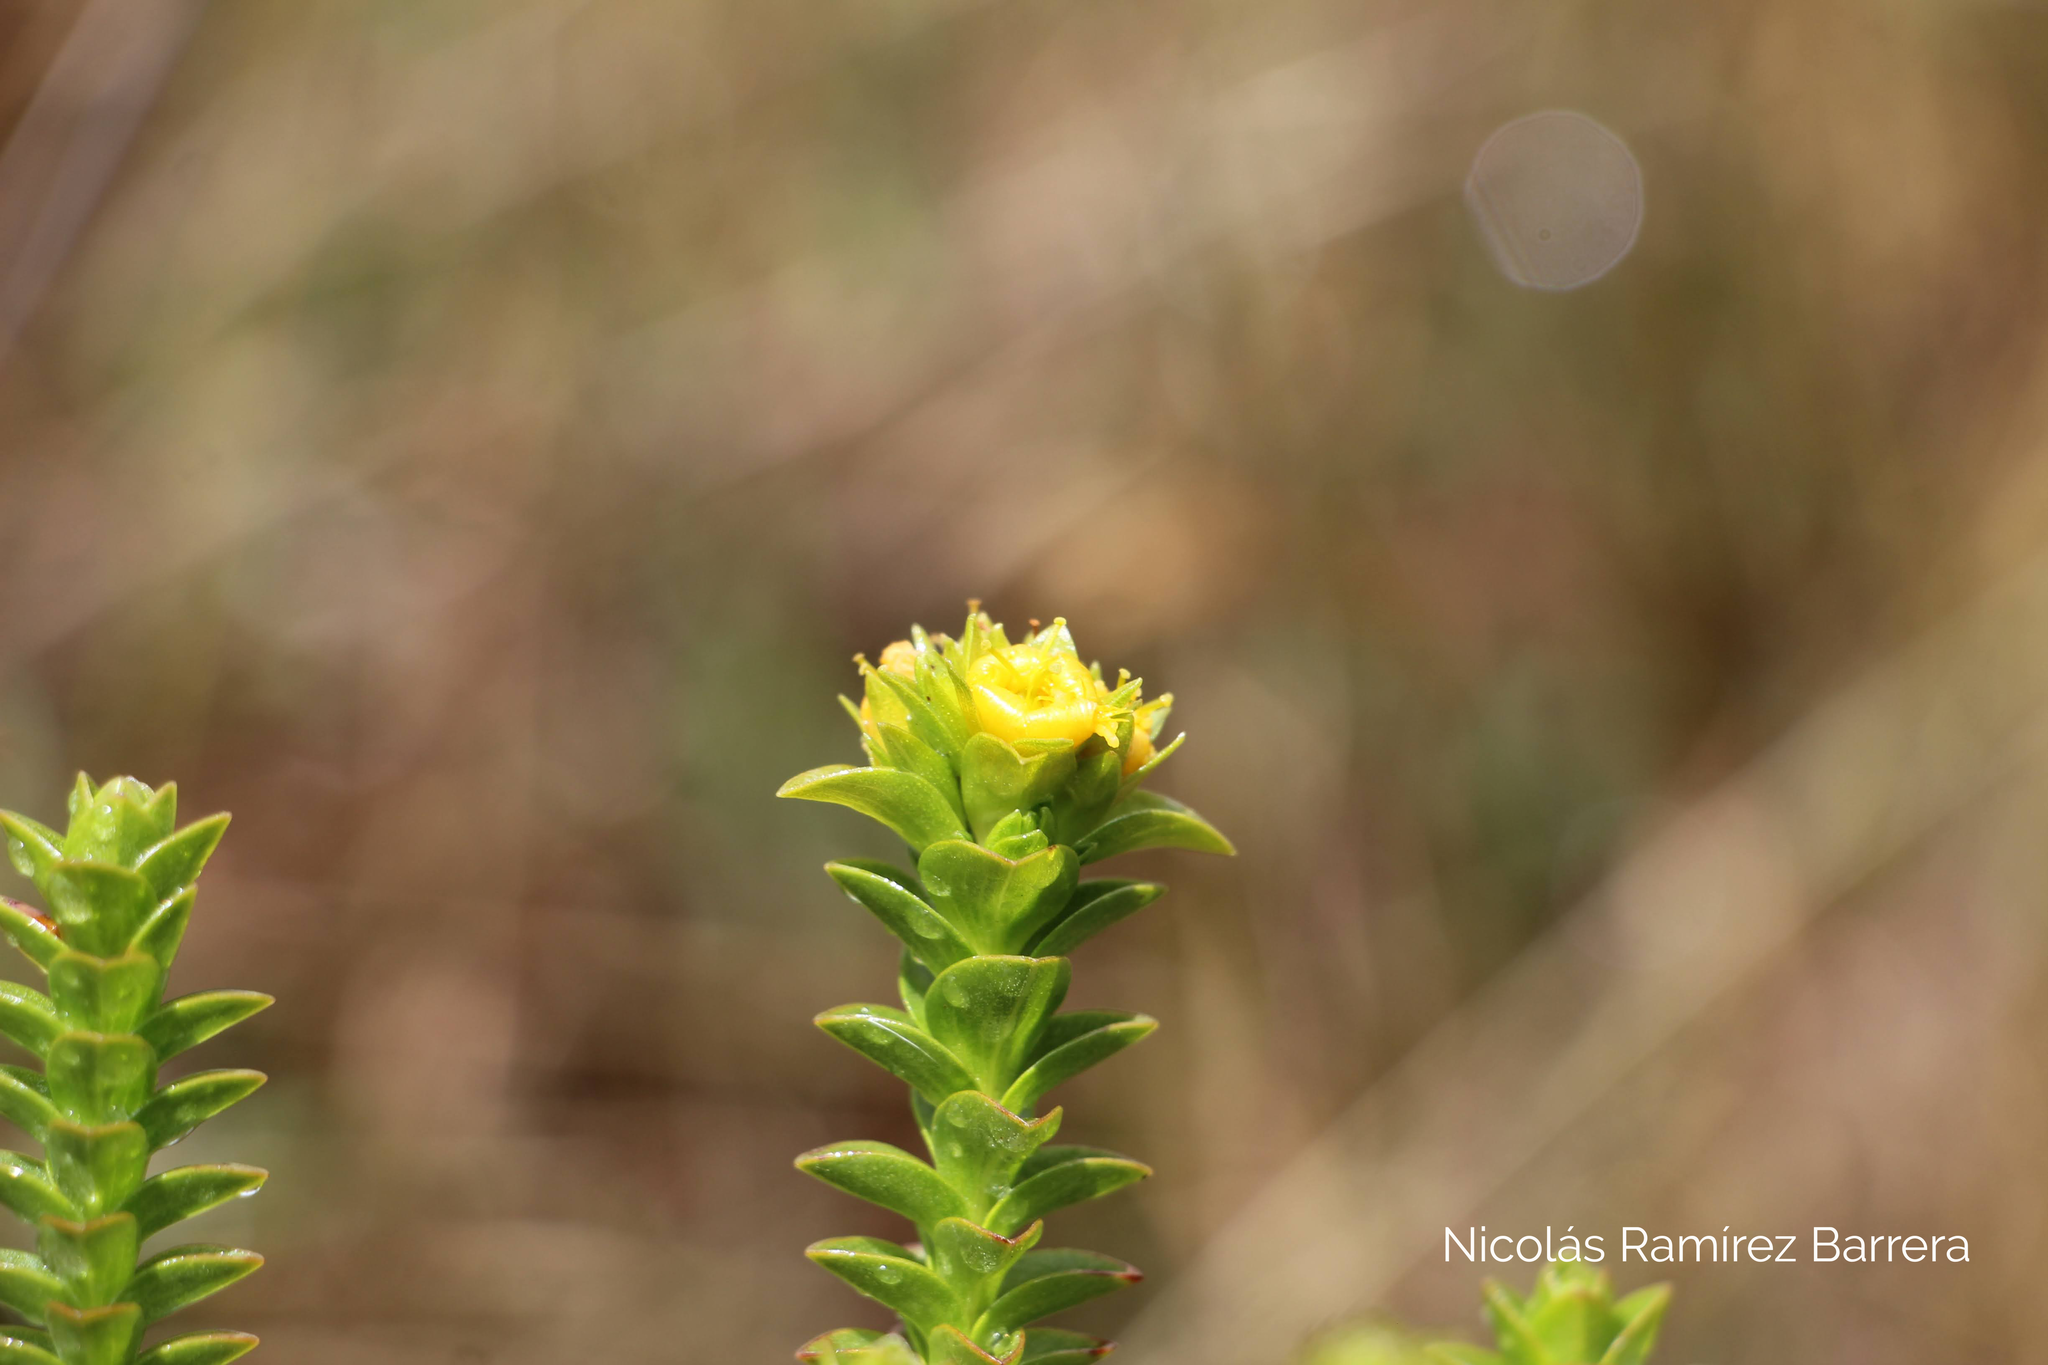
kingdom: Plantae
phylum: Tracheophyta
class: Magnoliopsida
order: Malpighiales
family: Hypericaceae
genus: Hypericum
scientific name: Hypericum mexicanum
